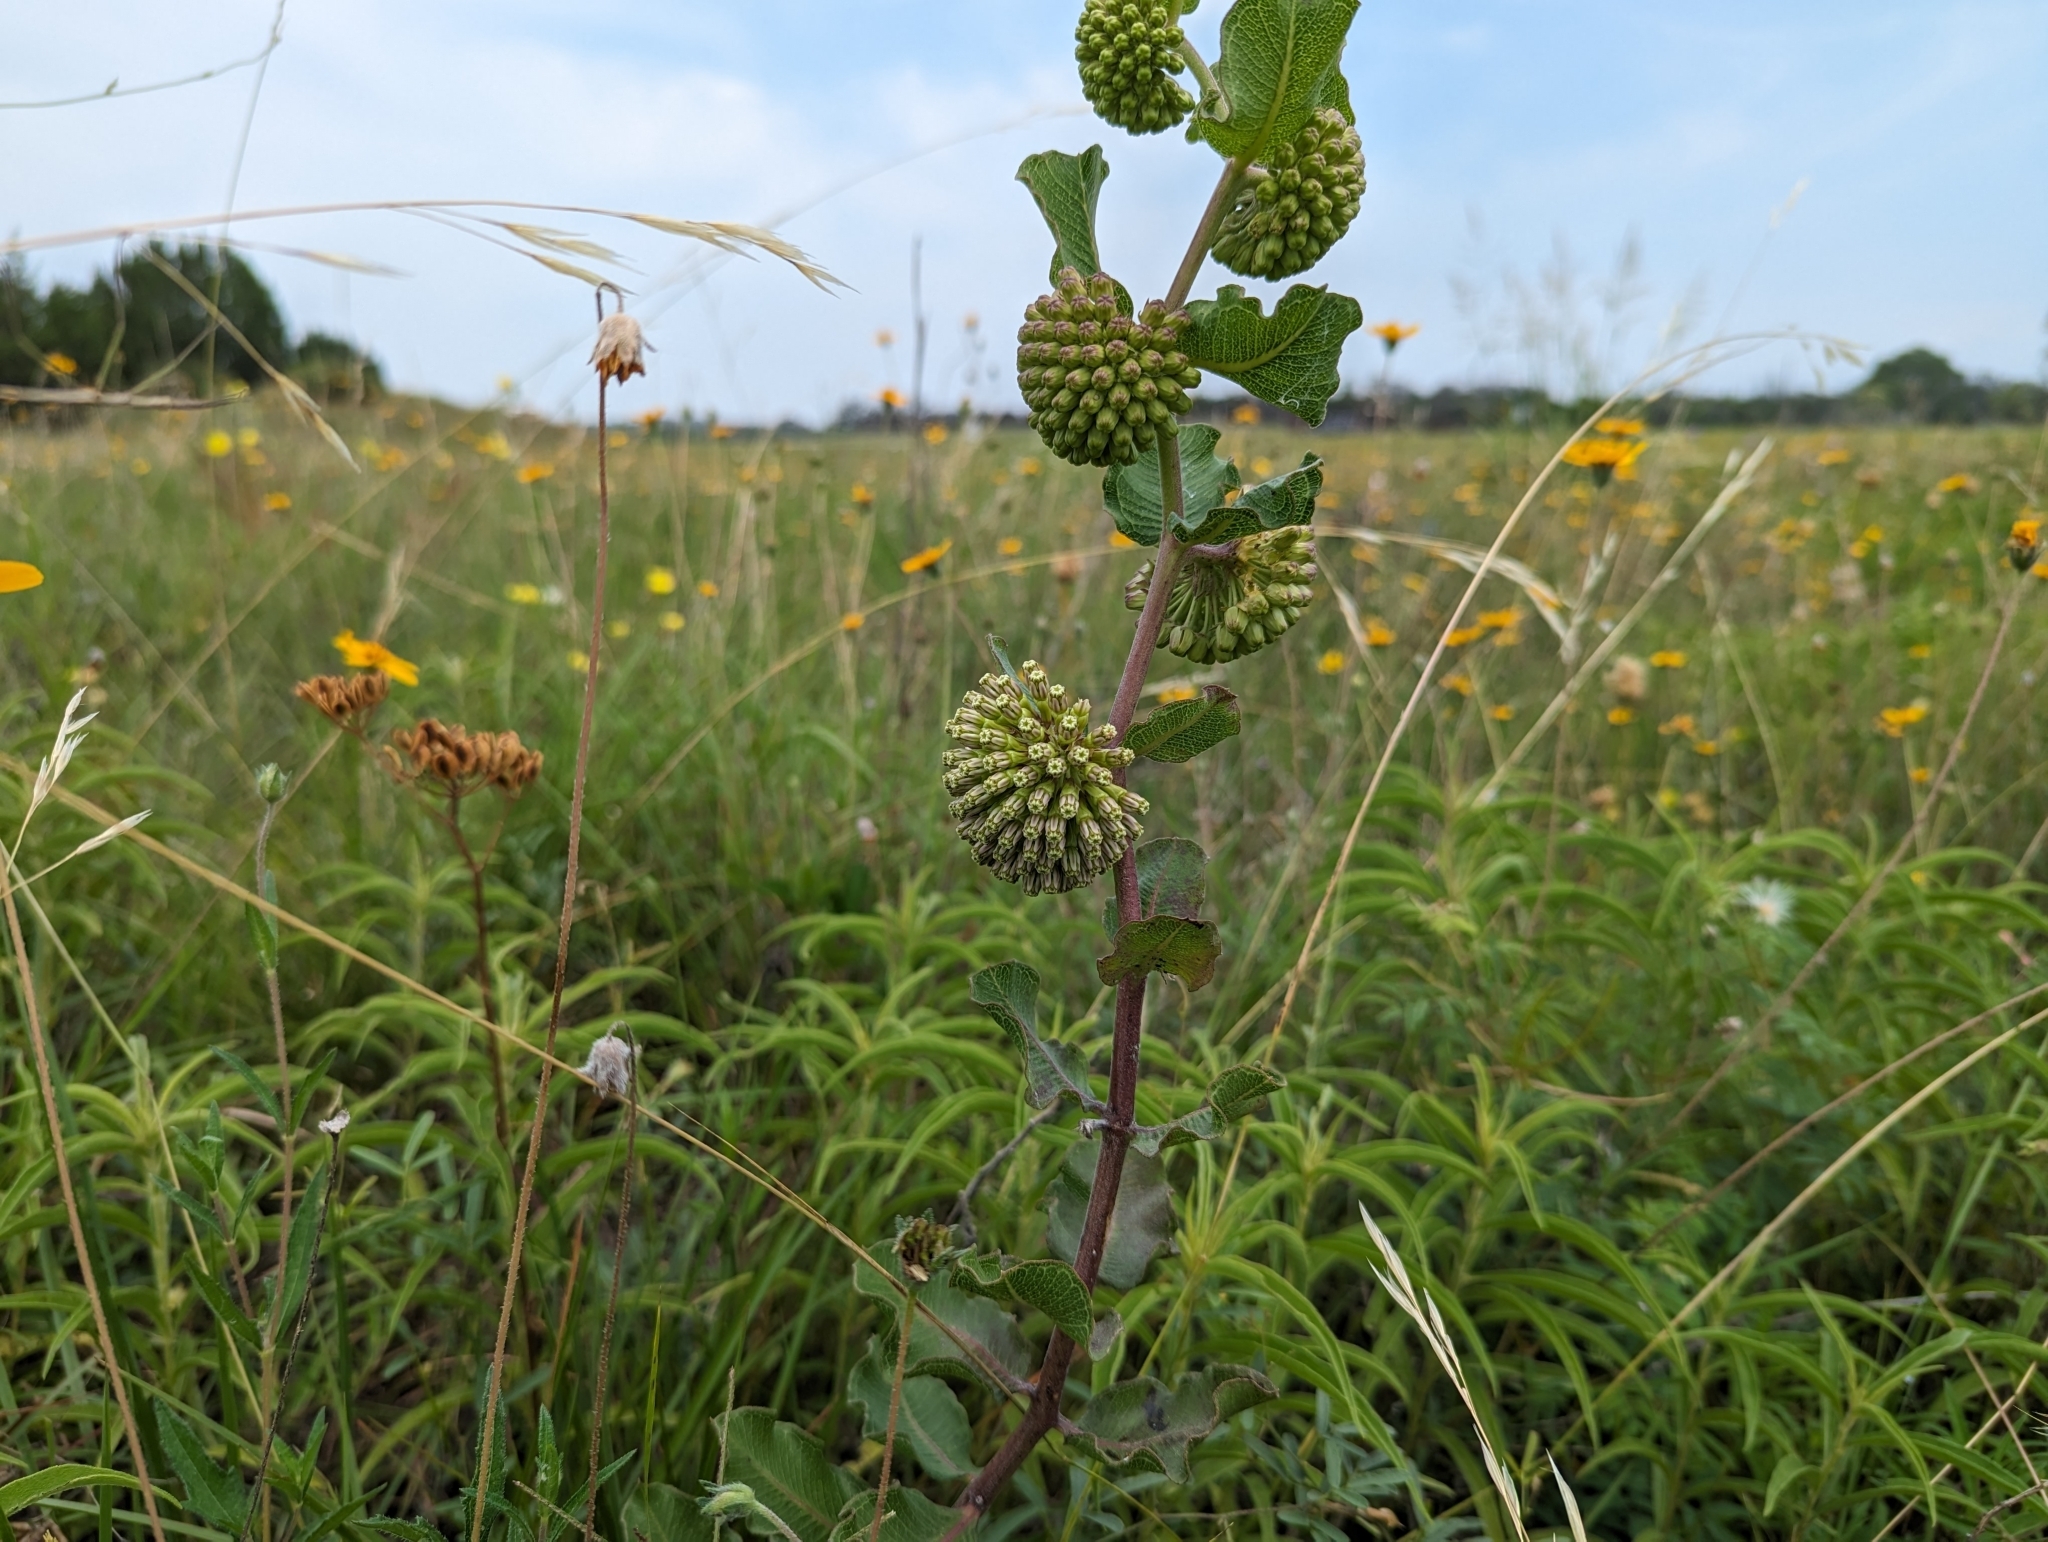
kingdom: Plantae
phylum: Tracheophyta
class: Magnoliopsida
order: Gentianales
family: Apocynaceae
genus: Asclepias
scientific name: Asclepias viridiflora
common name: Green comet milkweed
